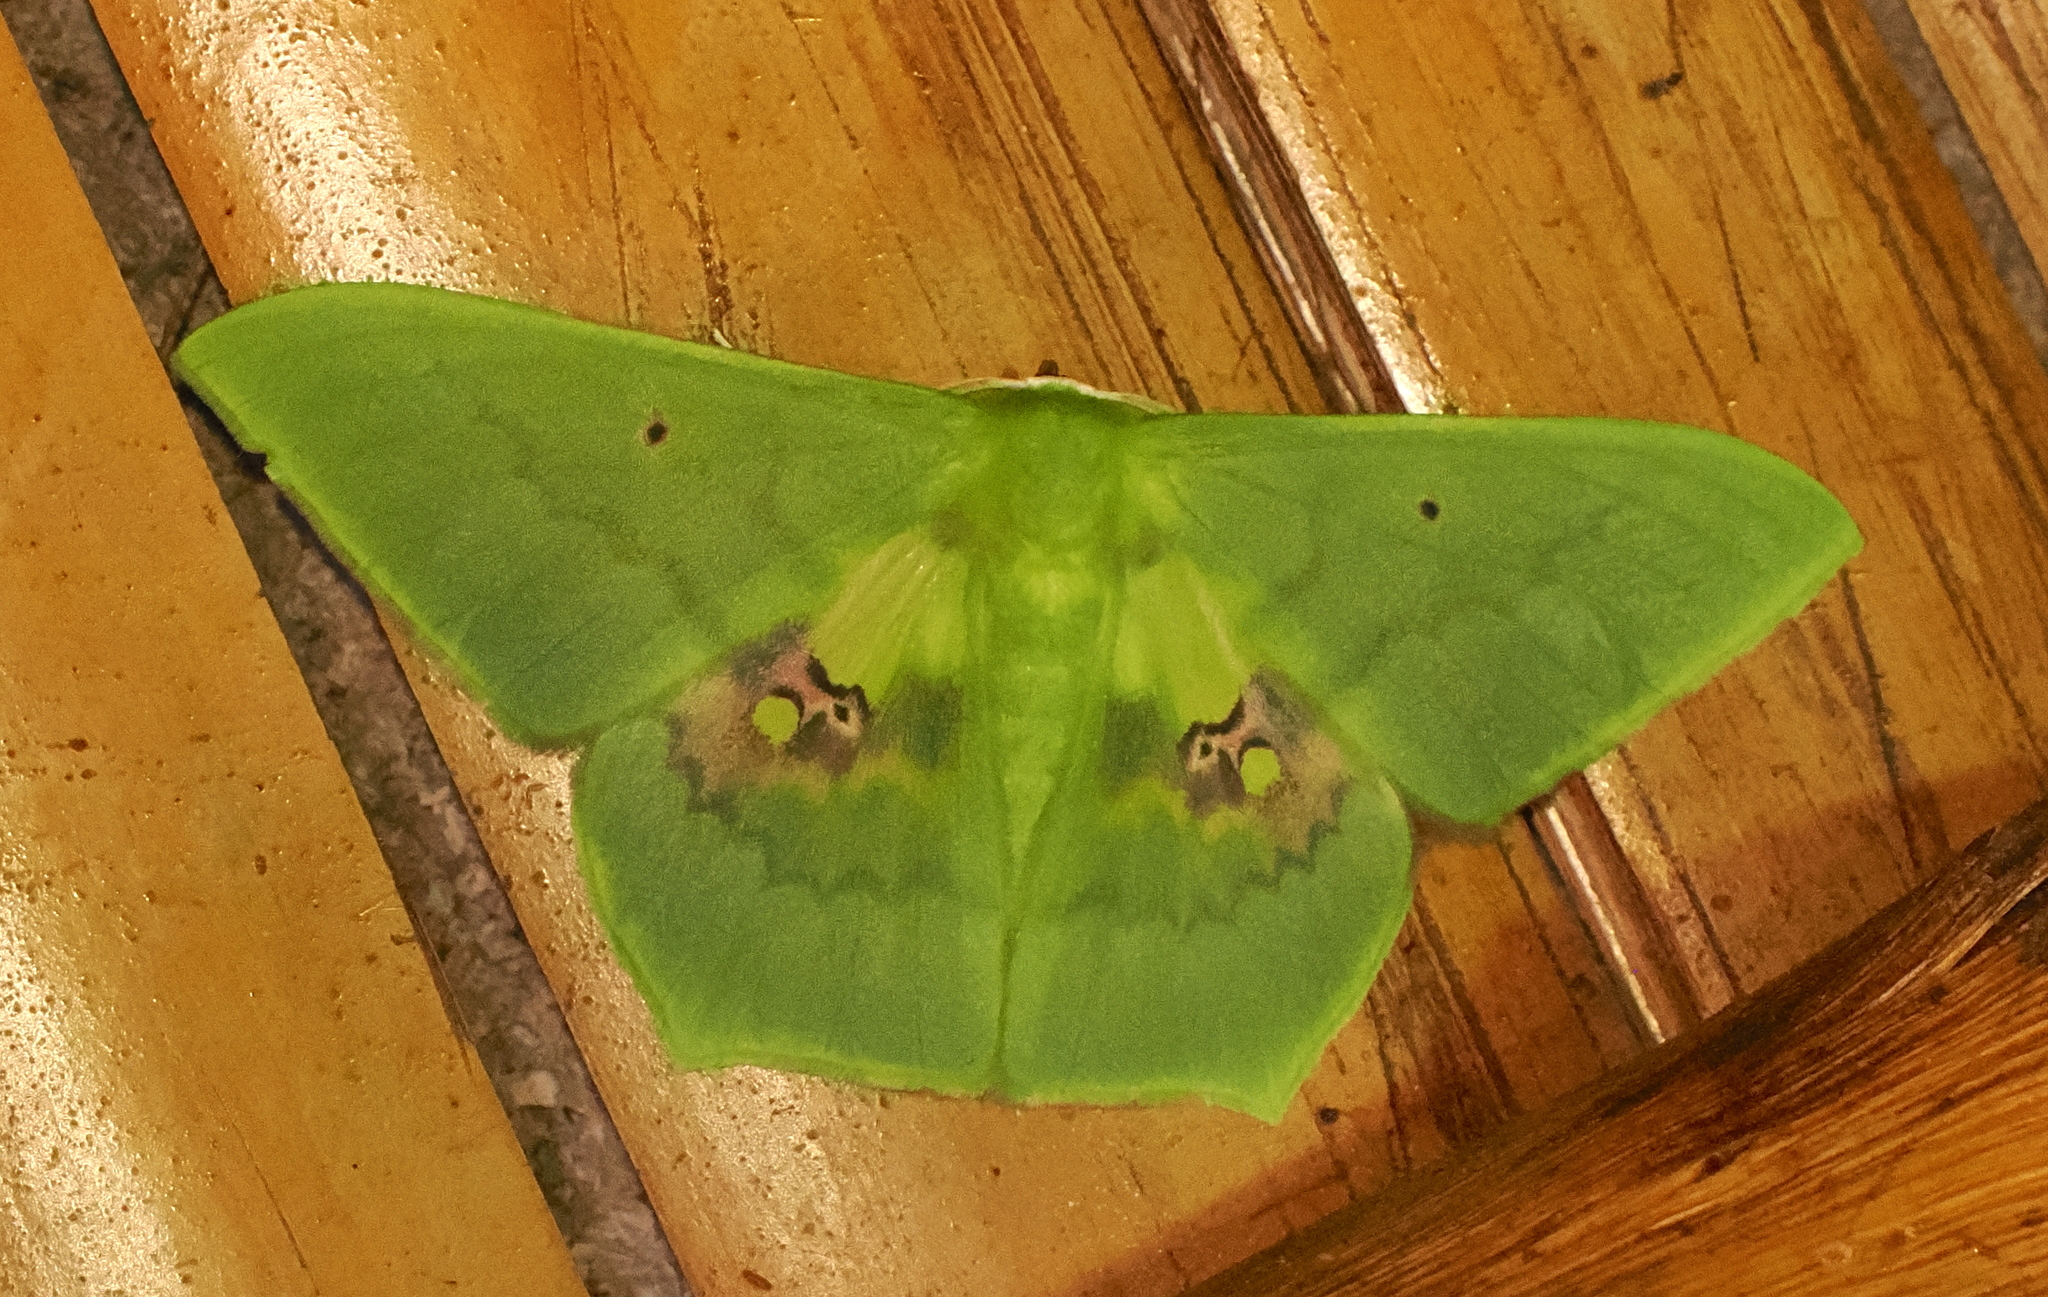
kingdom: Animalia
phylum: Arthropoda
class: Insecta
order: Lepidoptera
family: Geometridae
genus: Aporandria
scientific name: Aporandria specularia
